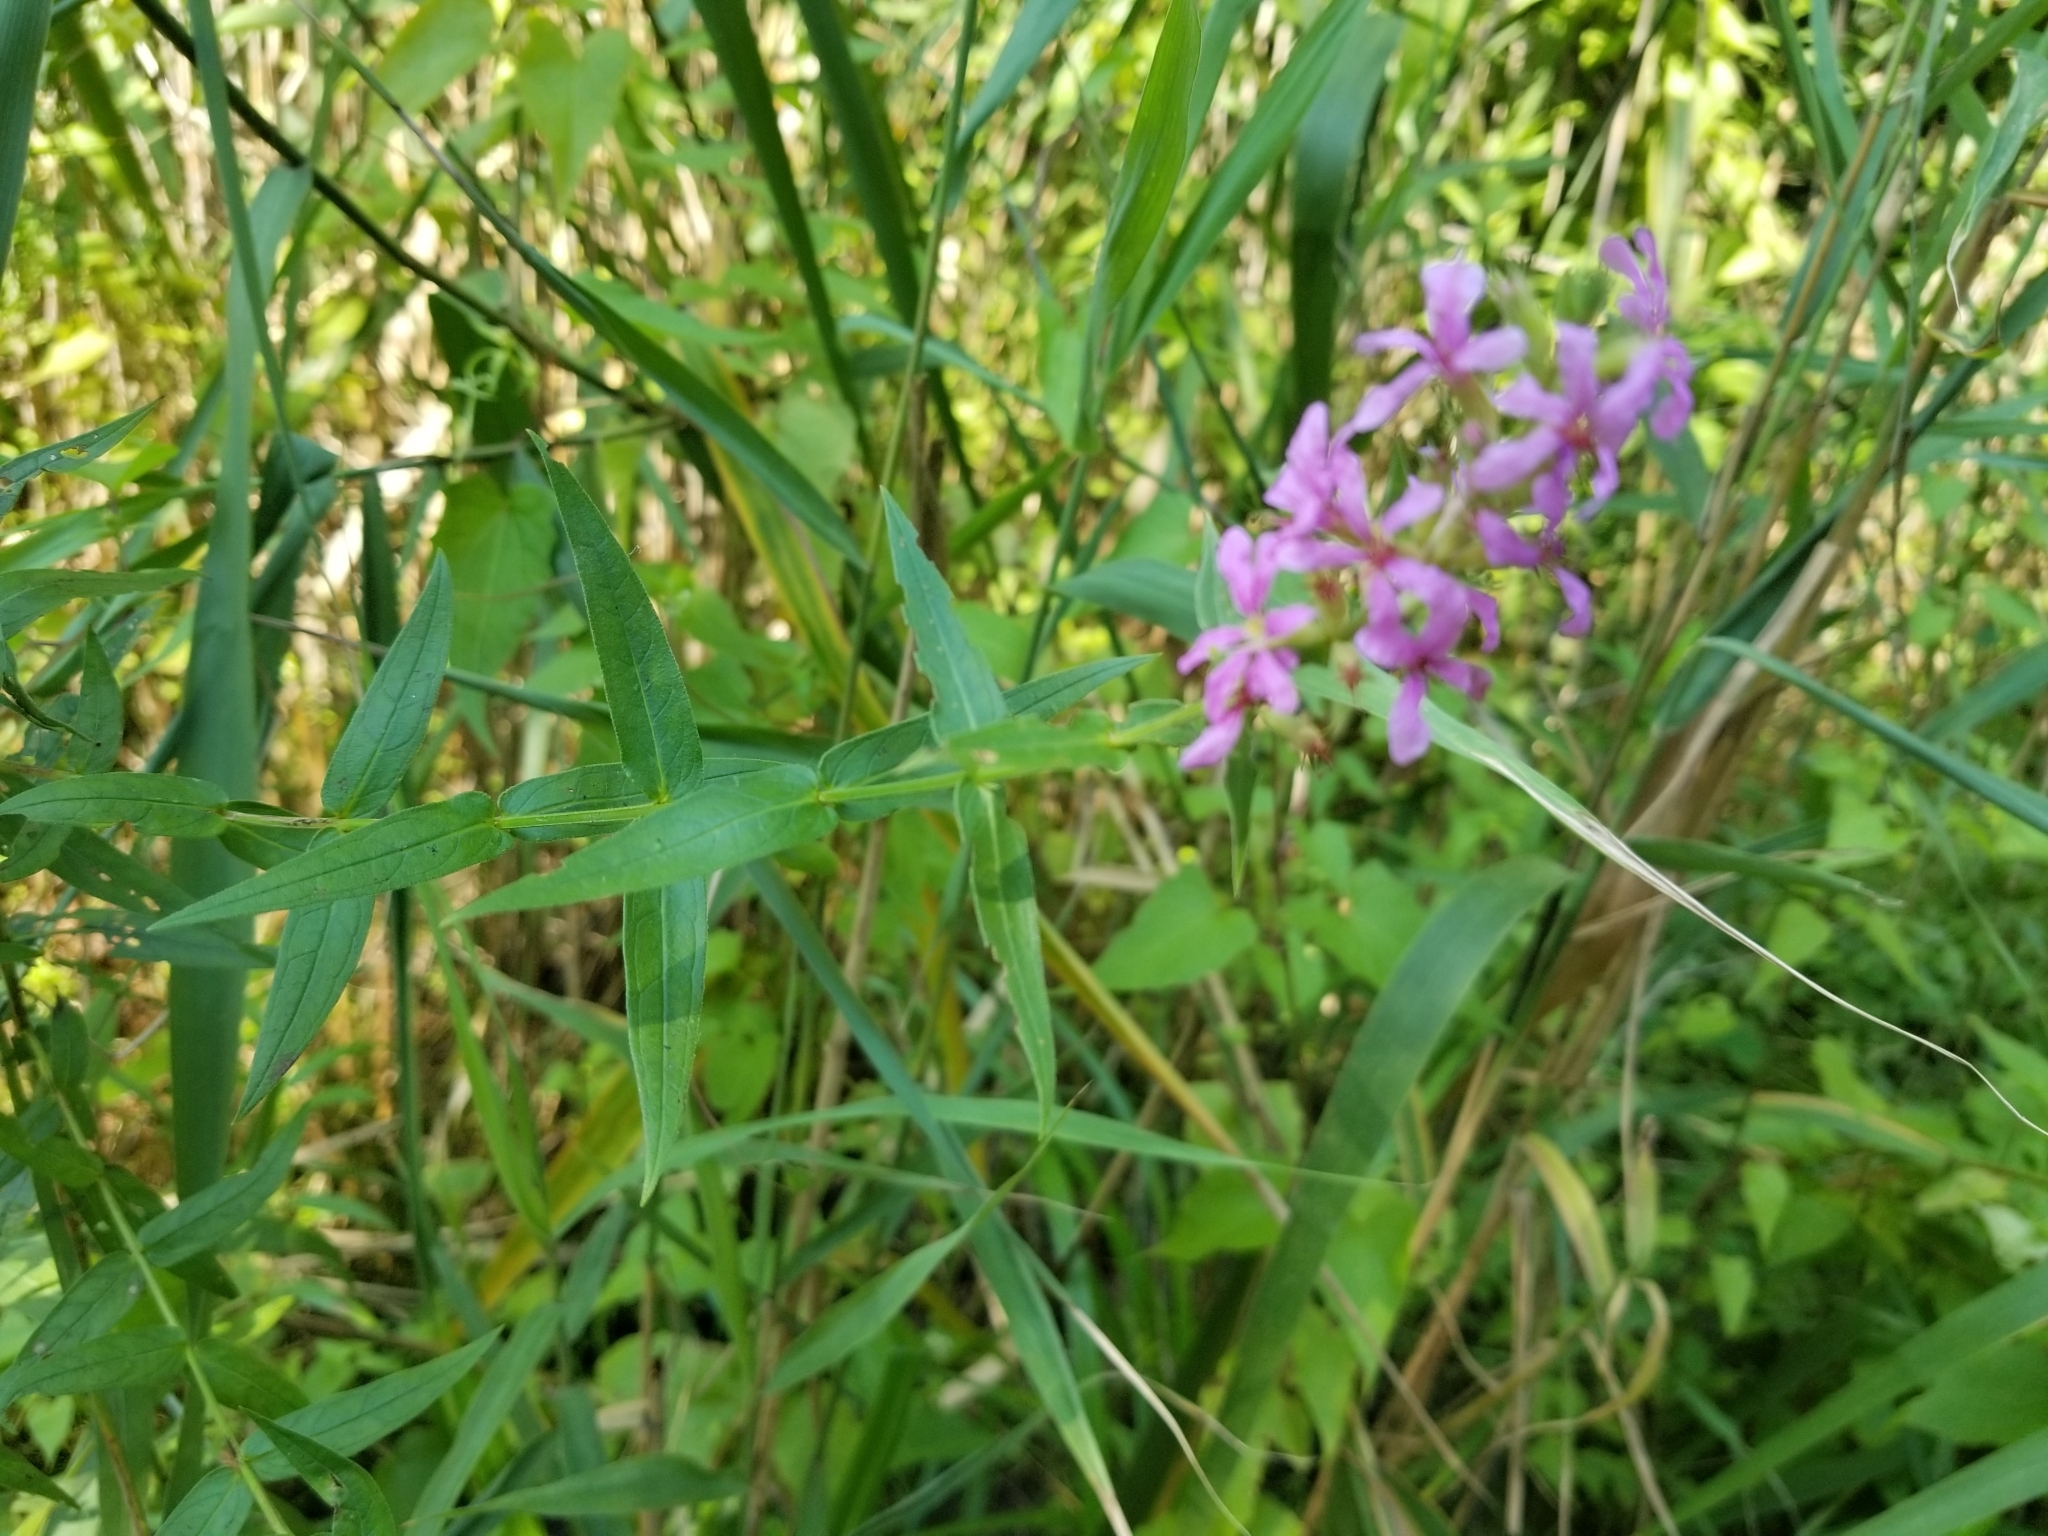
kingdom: Plantae
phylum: Tracheophyta
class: Magnoliopsida
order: Myrtales
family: Lythraceae
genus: Lythrum
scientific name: Lythrum salicaria
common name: Purple loosestrife
